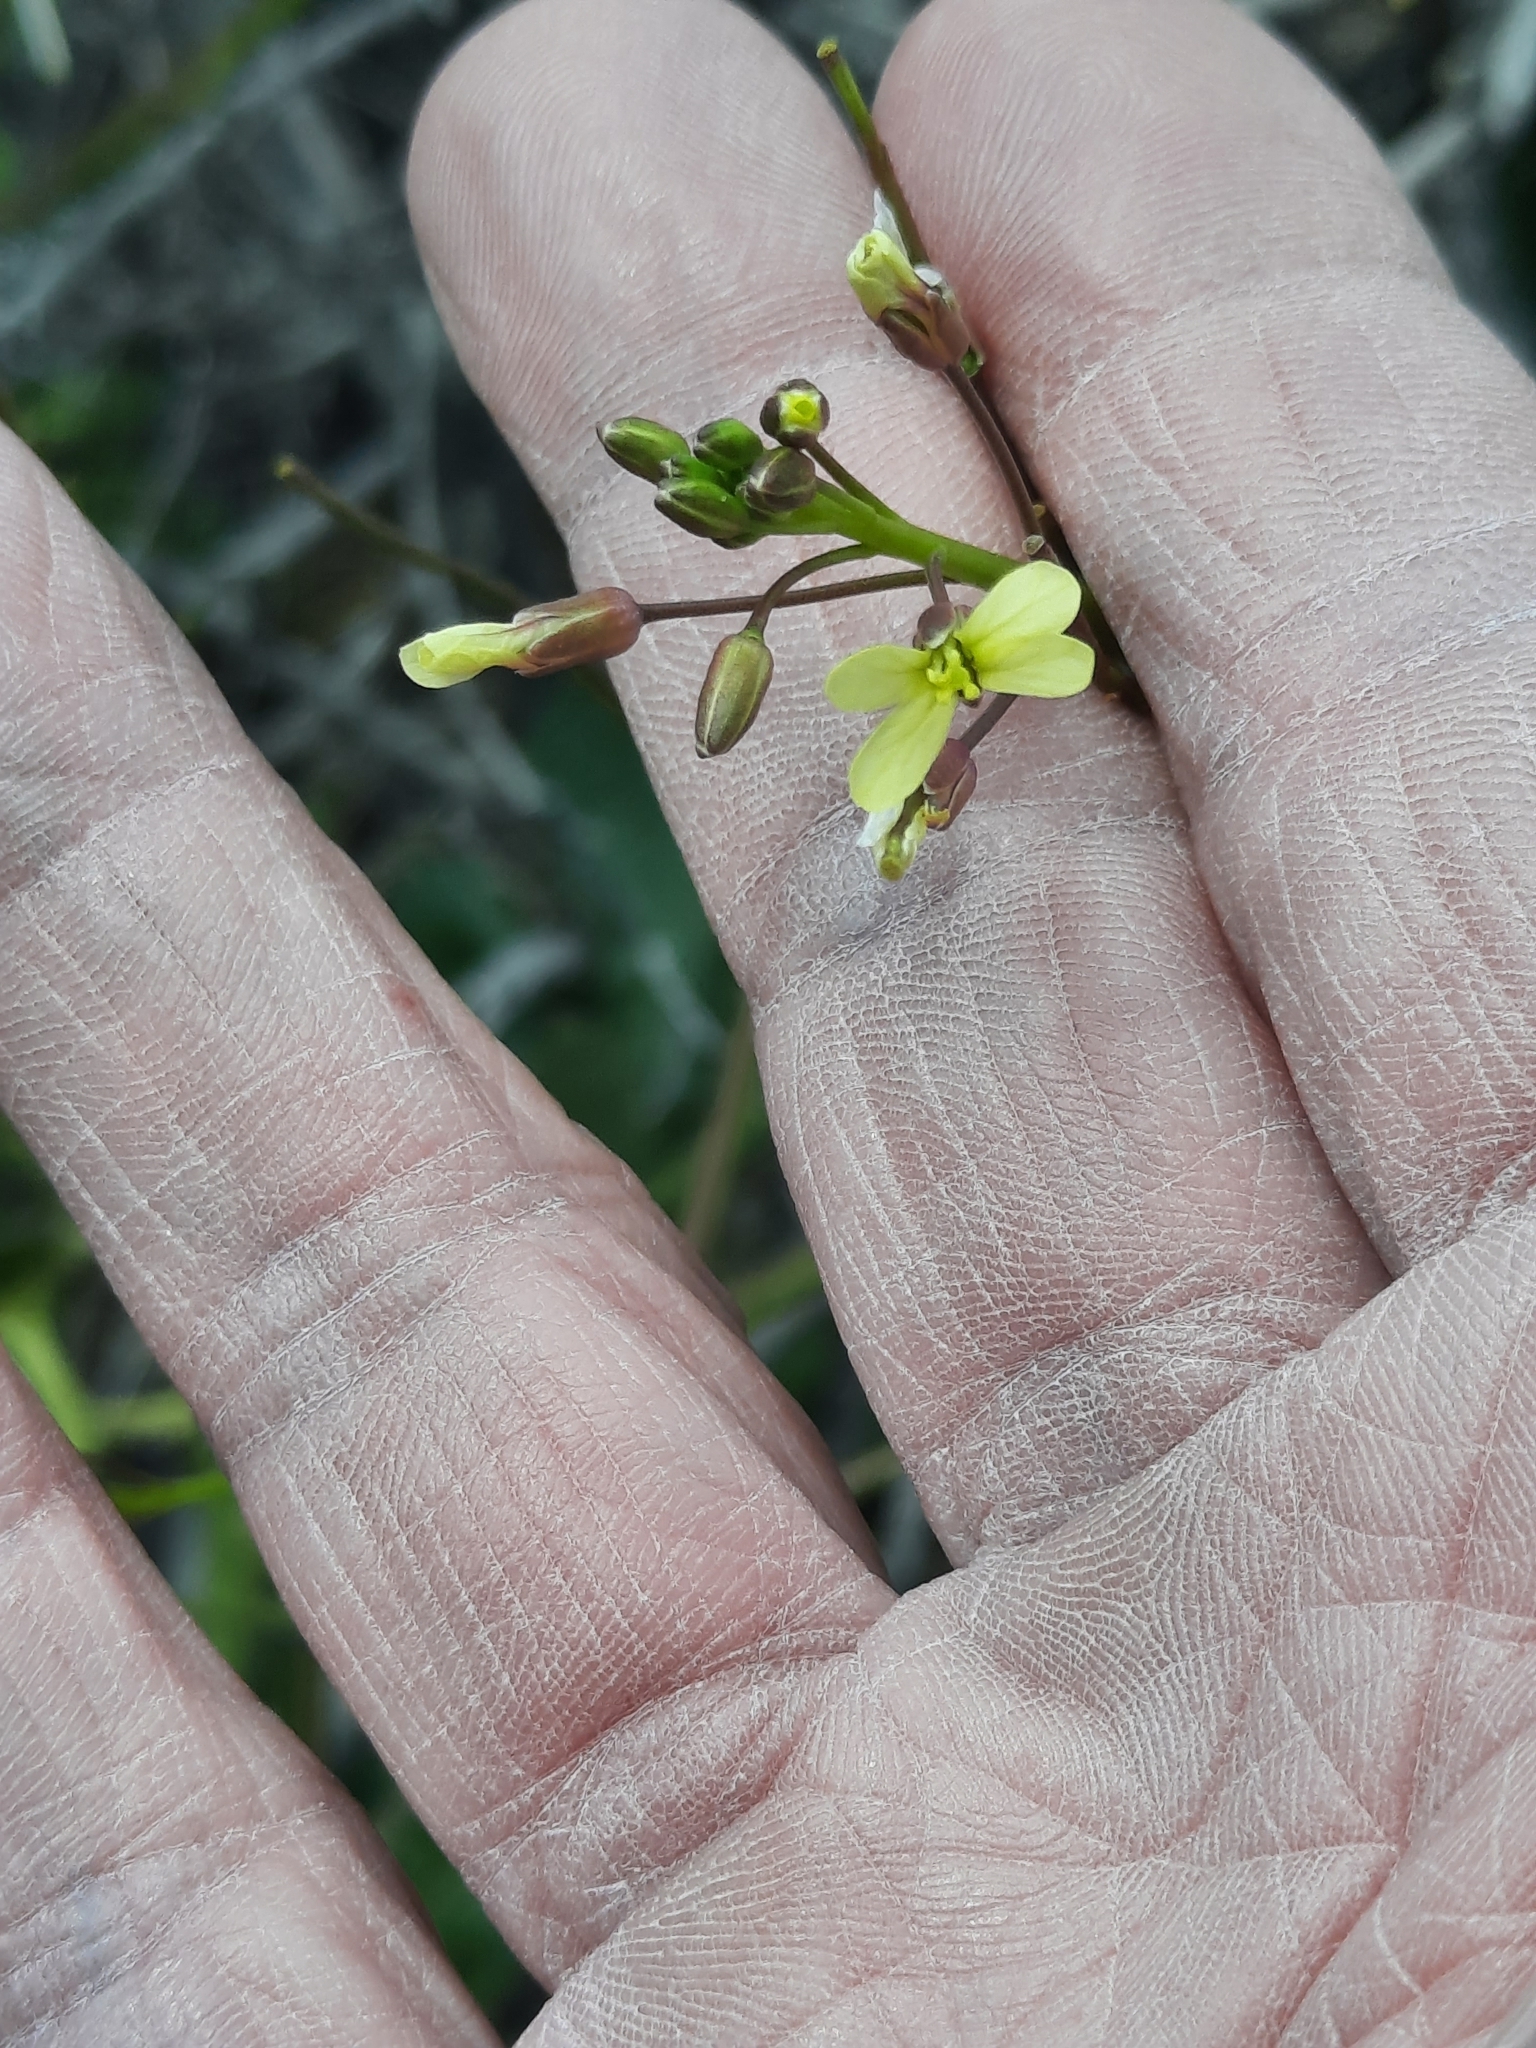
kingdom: Plantae
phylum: Tracheophyta
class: Magnoliopsida
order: Brassicales
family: Brassicaceae
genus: Brassica
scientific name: Brassica tournefortii
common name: Pale cabbage
